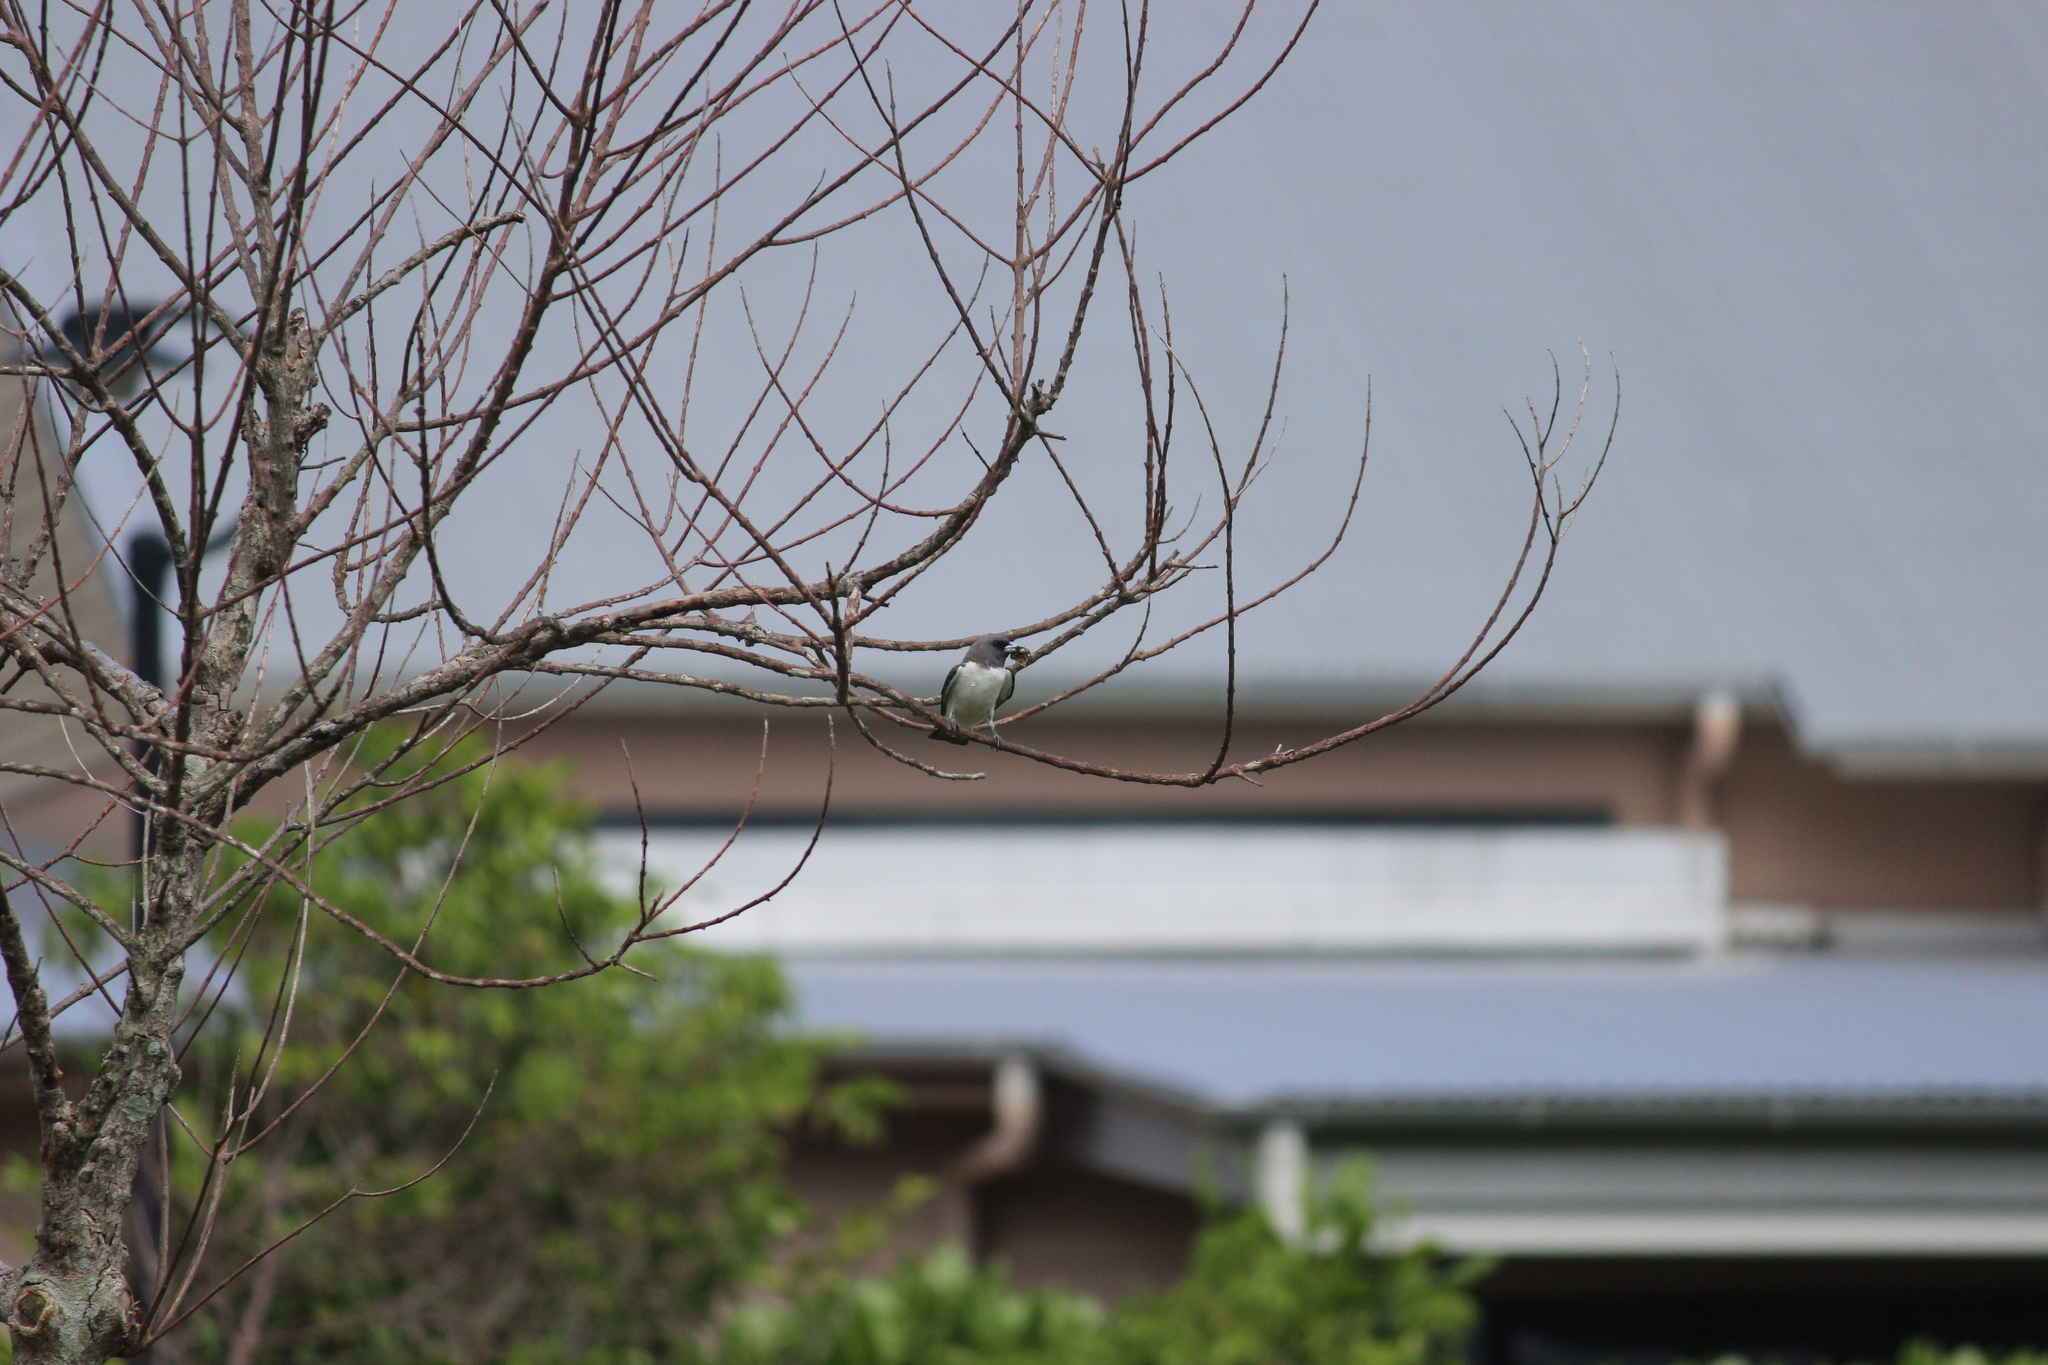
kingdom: Animalia
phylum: Chordata
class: Aves
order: Passeriformes
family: Artamidae
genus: Artamus
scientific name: Artamus leucoryn
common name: White-breasted woodswallow
